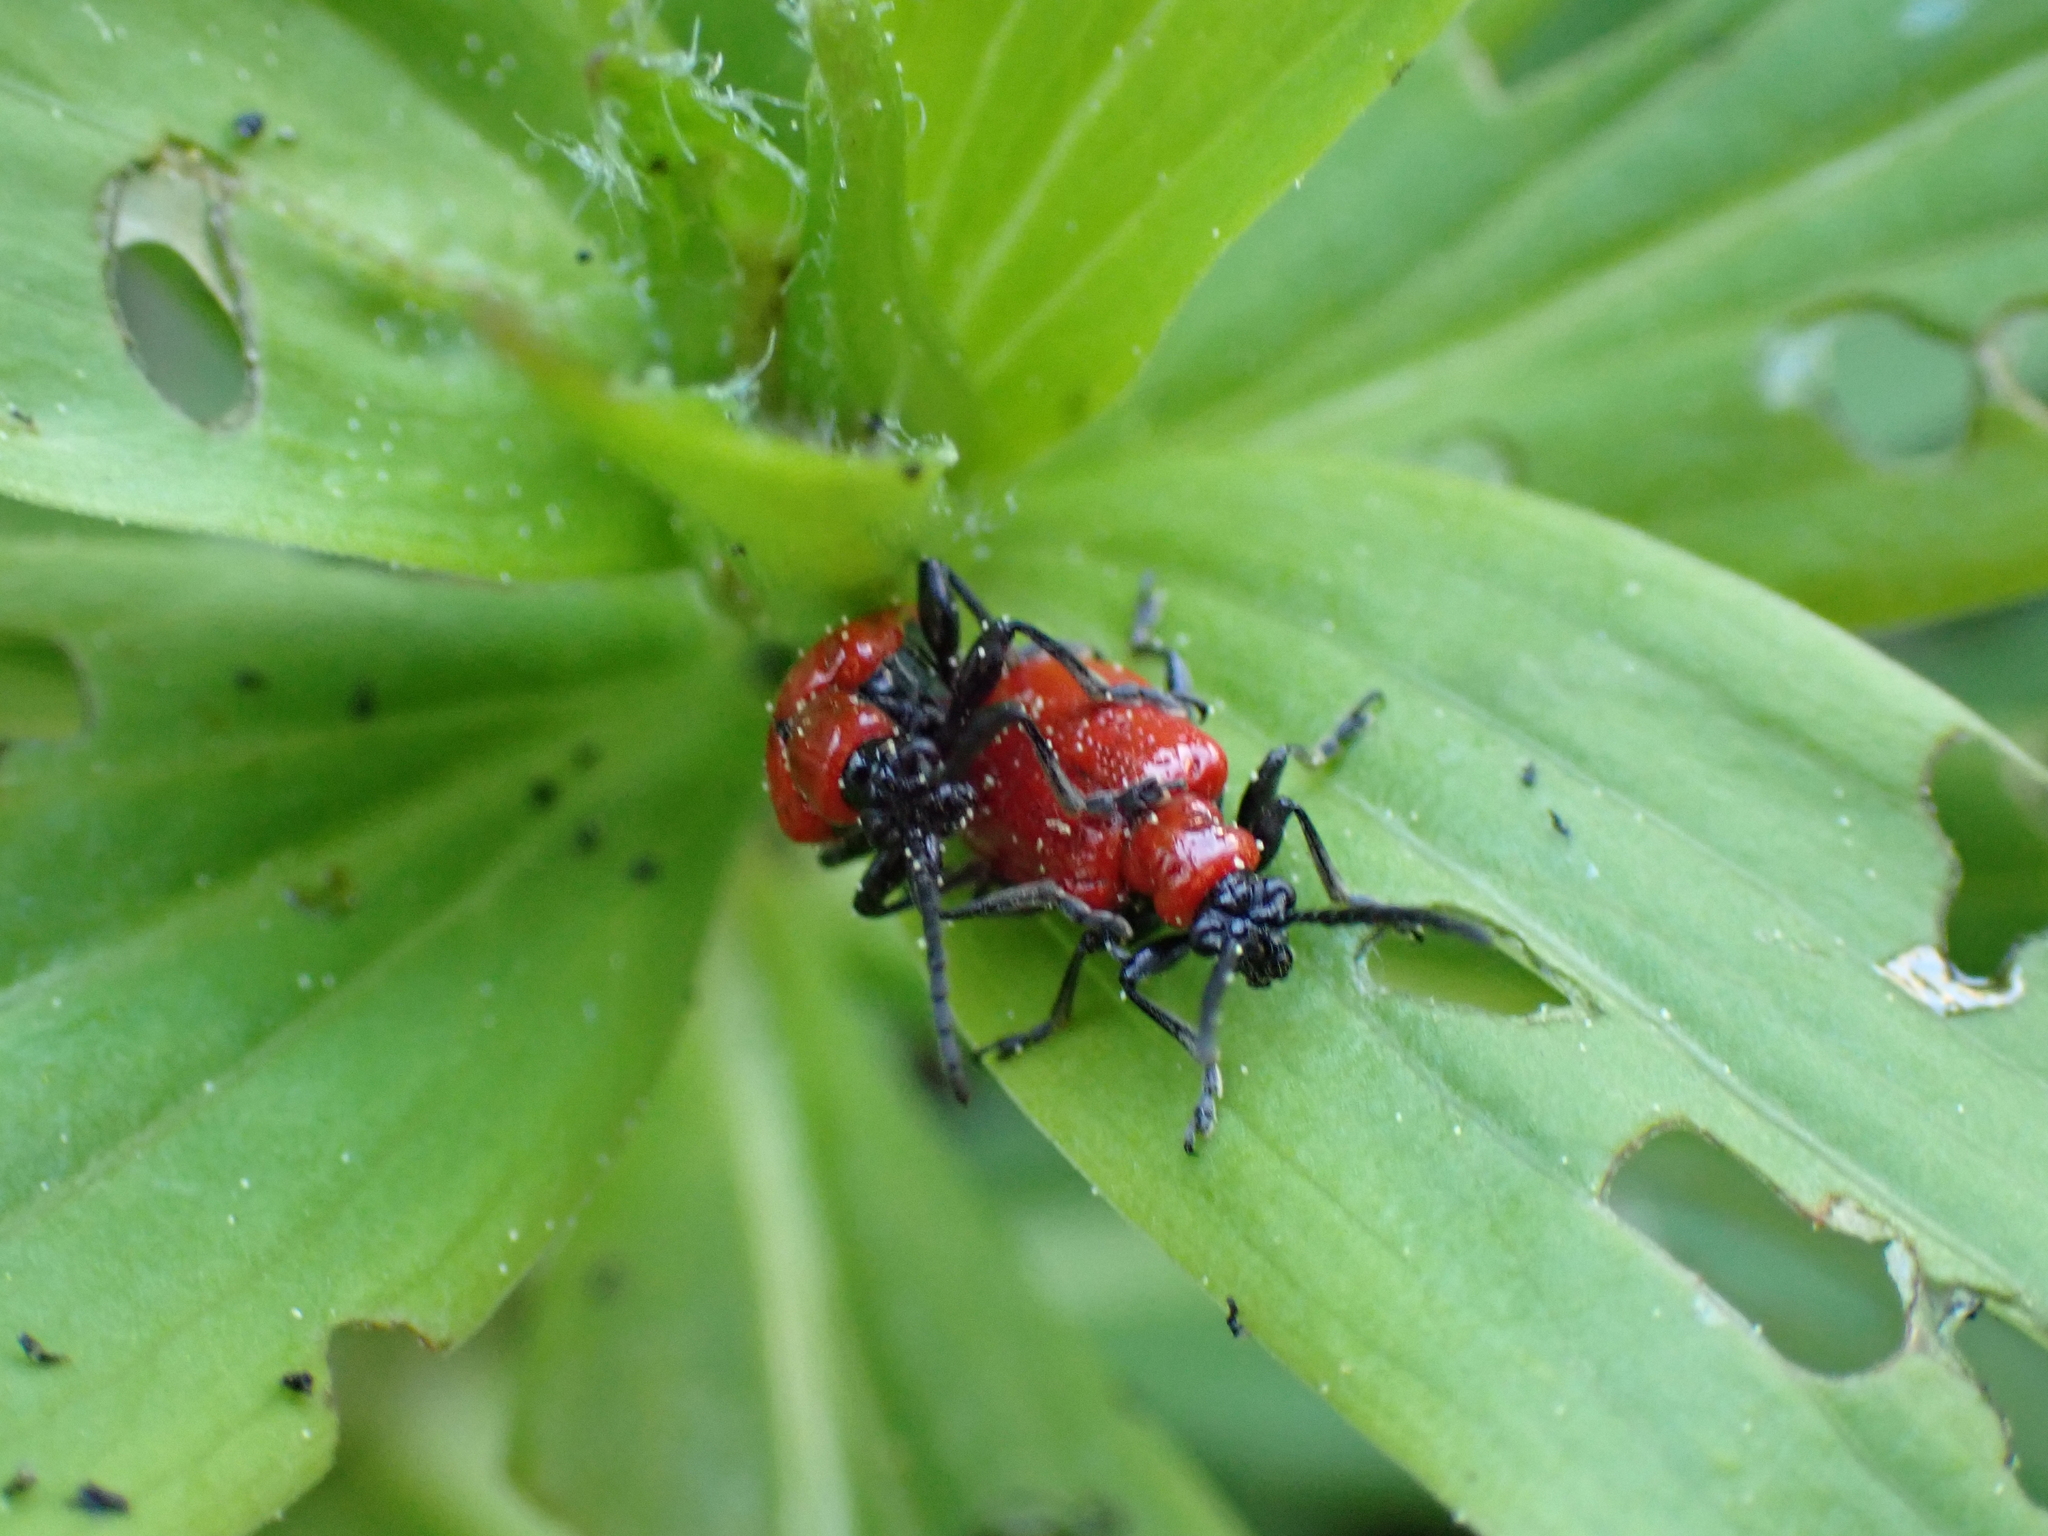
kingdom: Animalia
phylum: Arthropoda
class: Insecta
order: Coleoptera
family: Chrysomelidae
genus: Lilioceris
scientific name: Lilioceris lilii
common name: Lily beetle
